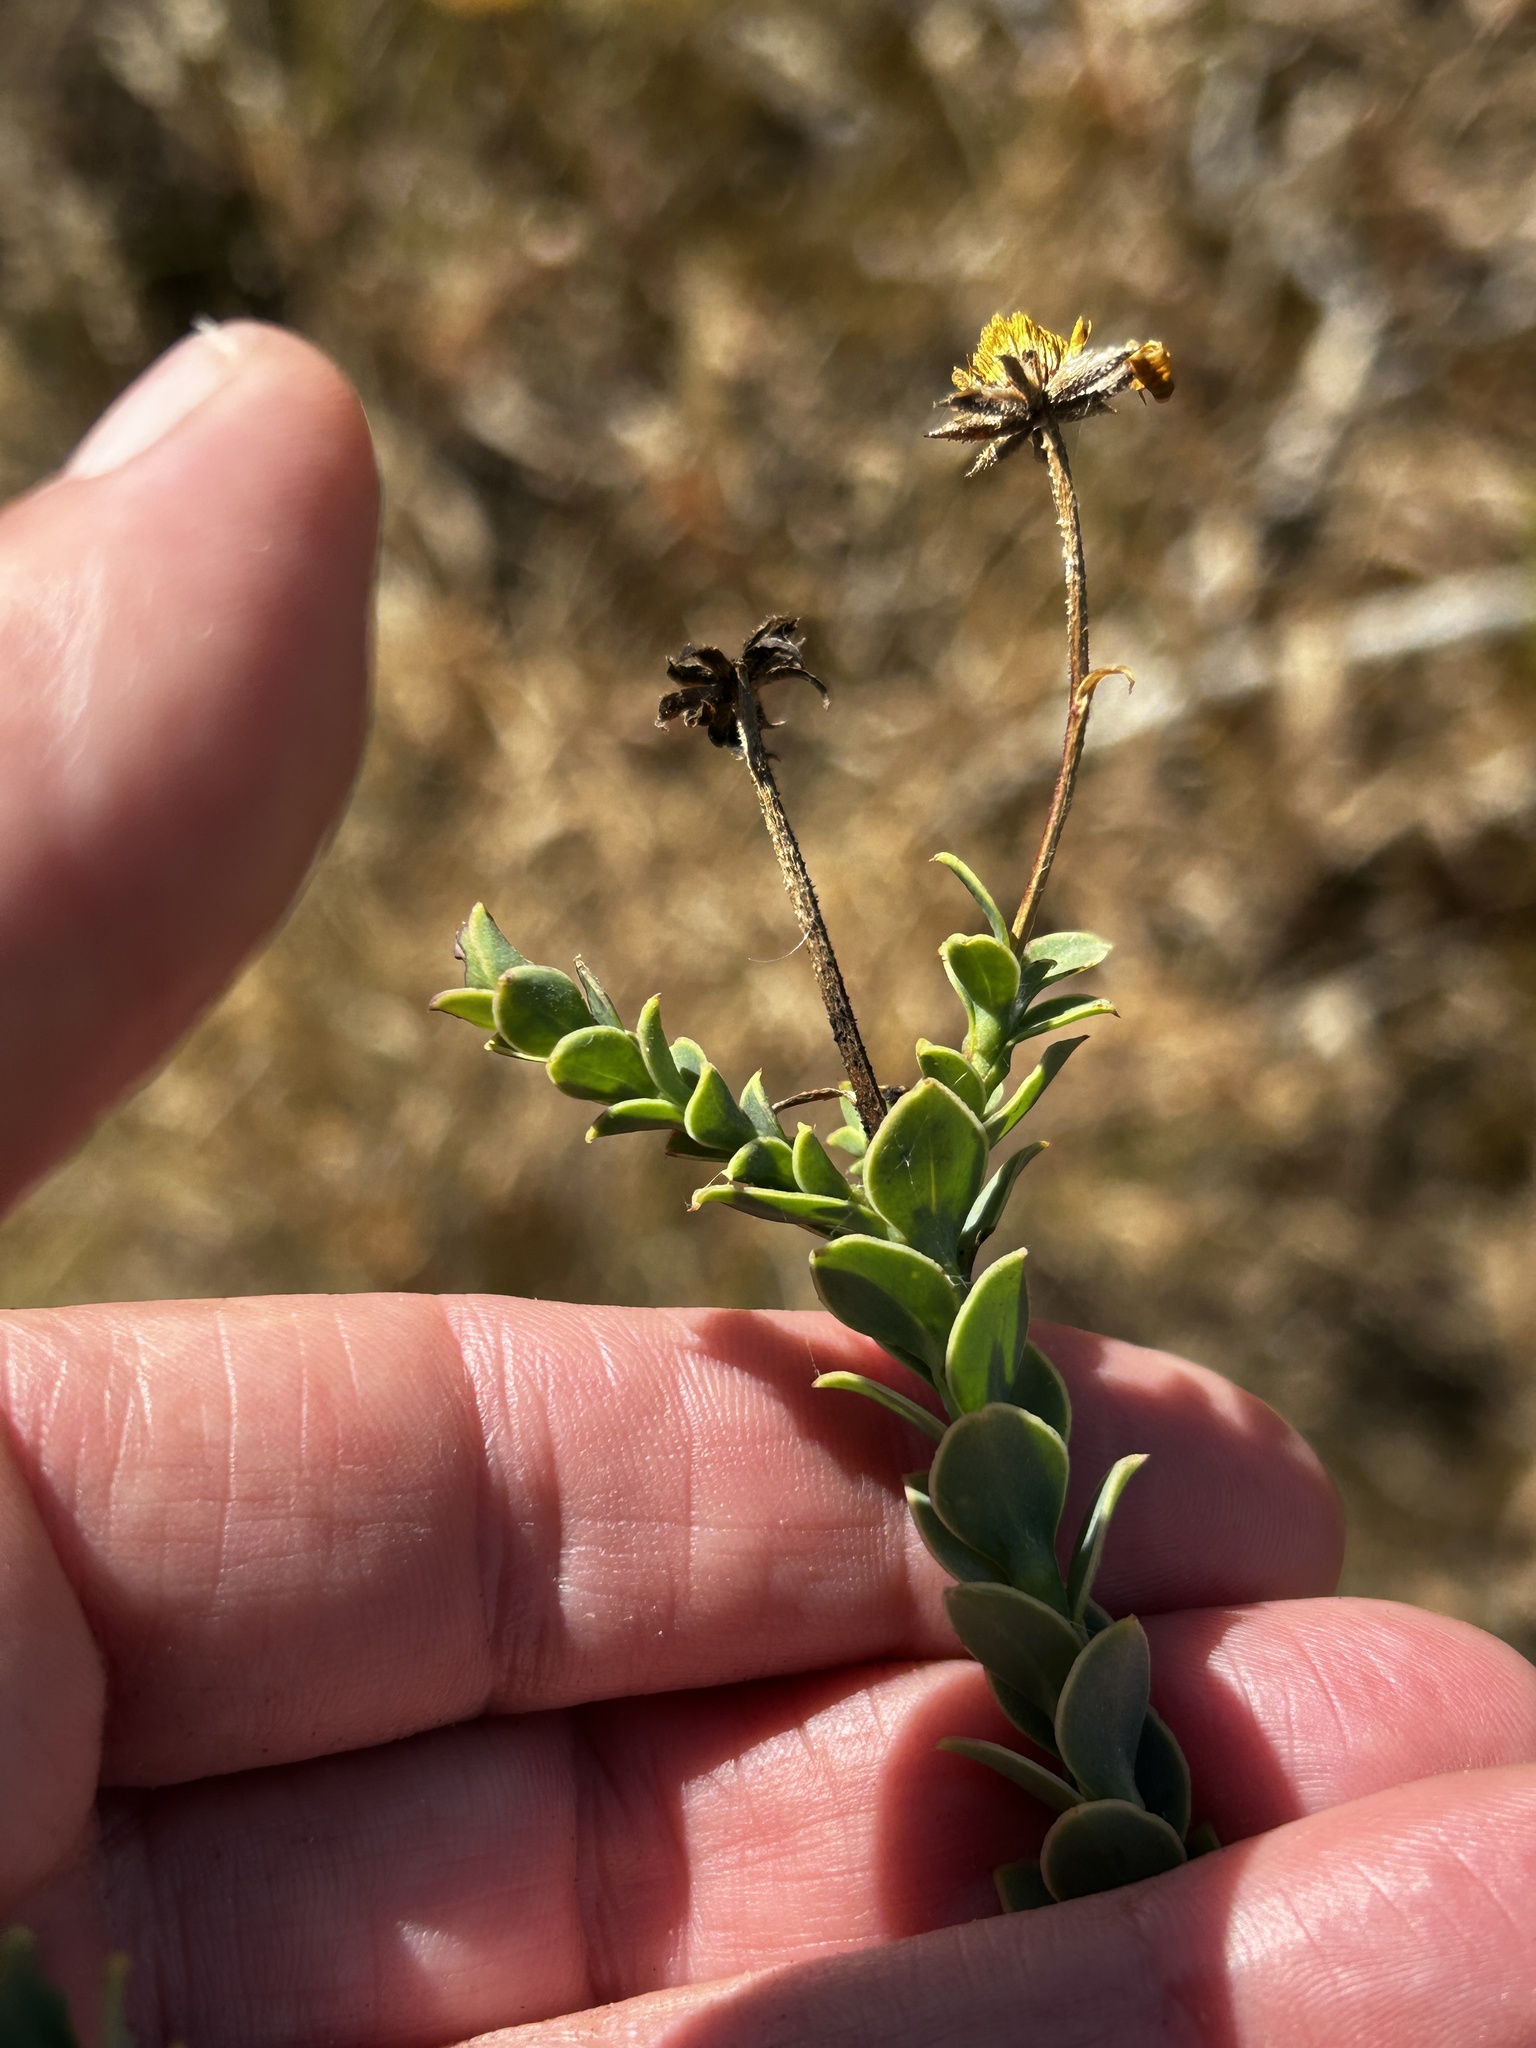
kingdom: Plantae
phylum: Tracheophyta
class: Magnoliopsida
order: Asterales
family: Asteraceae
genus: Osteospermum
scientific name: Osteospermum imbricatum
